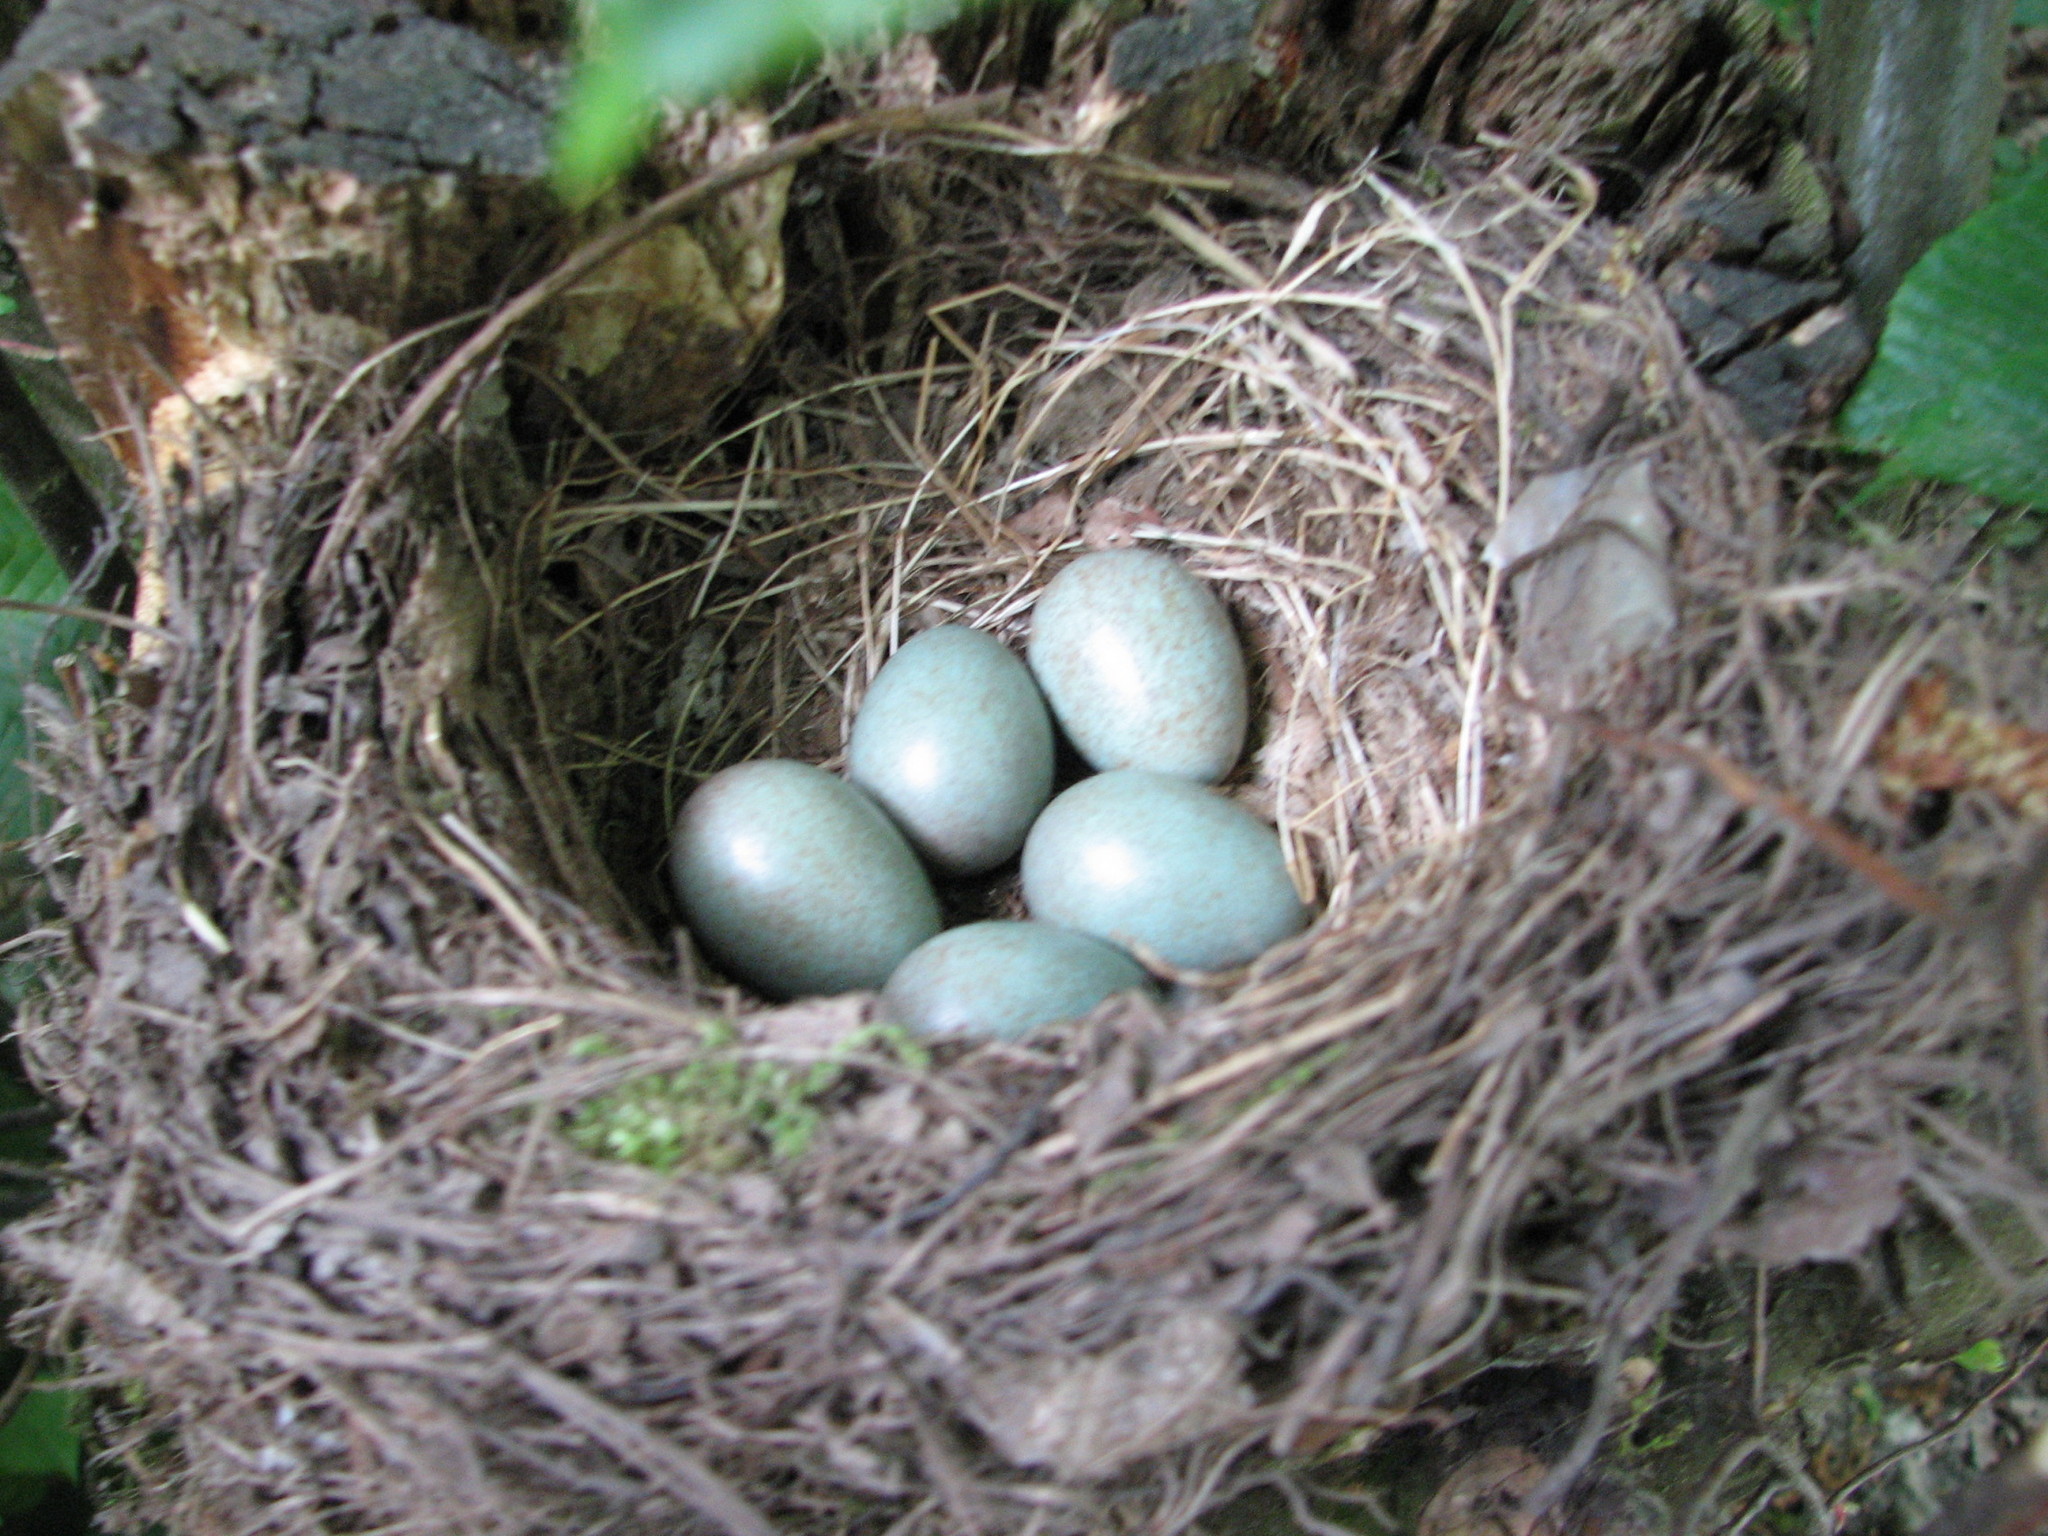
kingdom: Animalia
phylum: Chordata
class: Aves
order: Passeriformes
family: Turdidae
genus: Turdus
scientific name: Turdus merula
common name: Common blackbird
